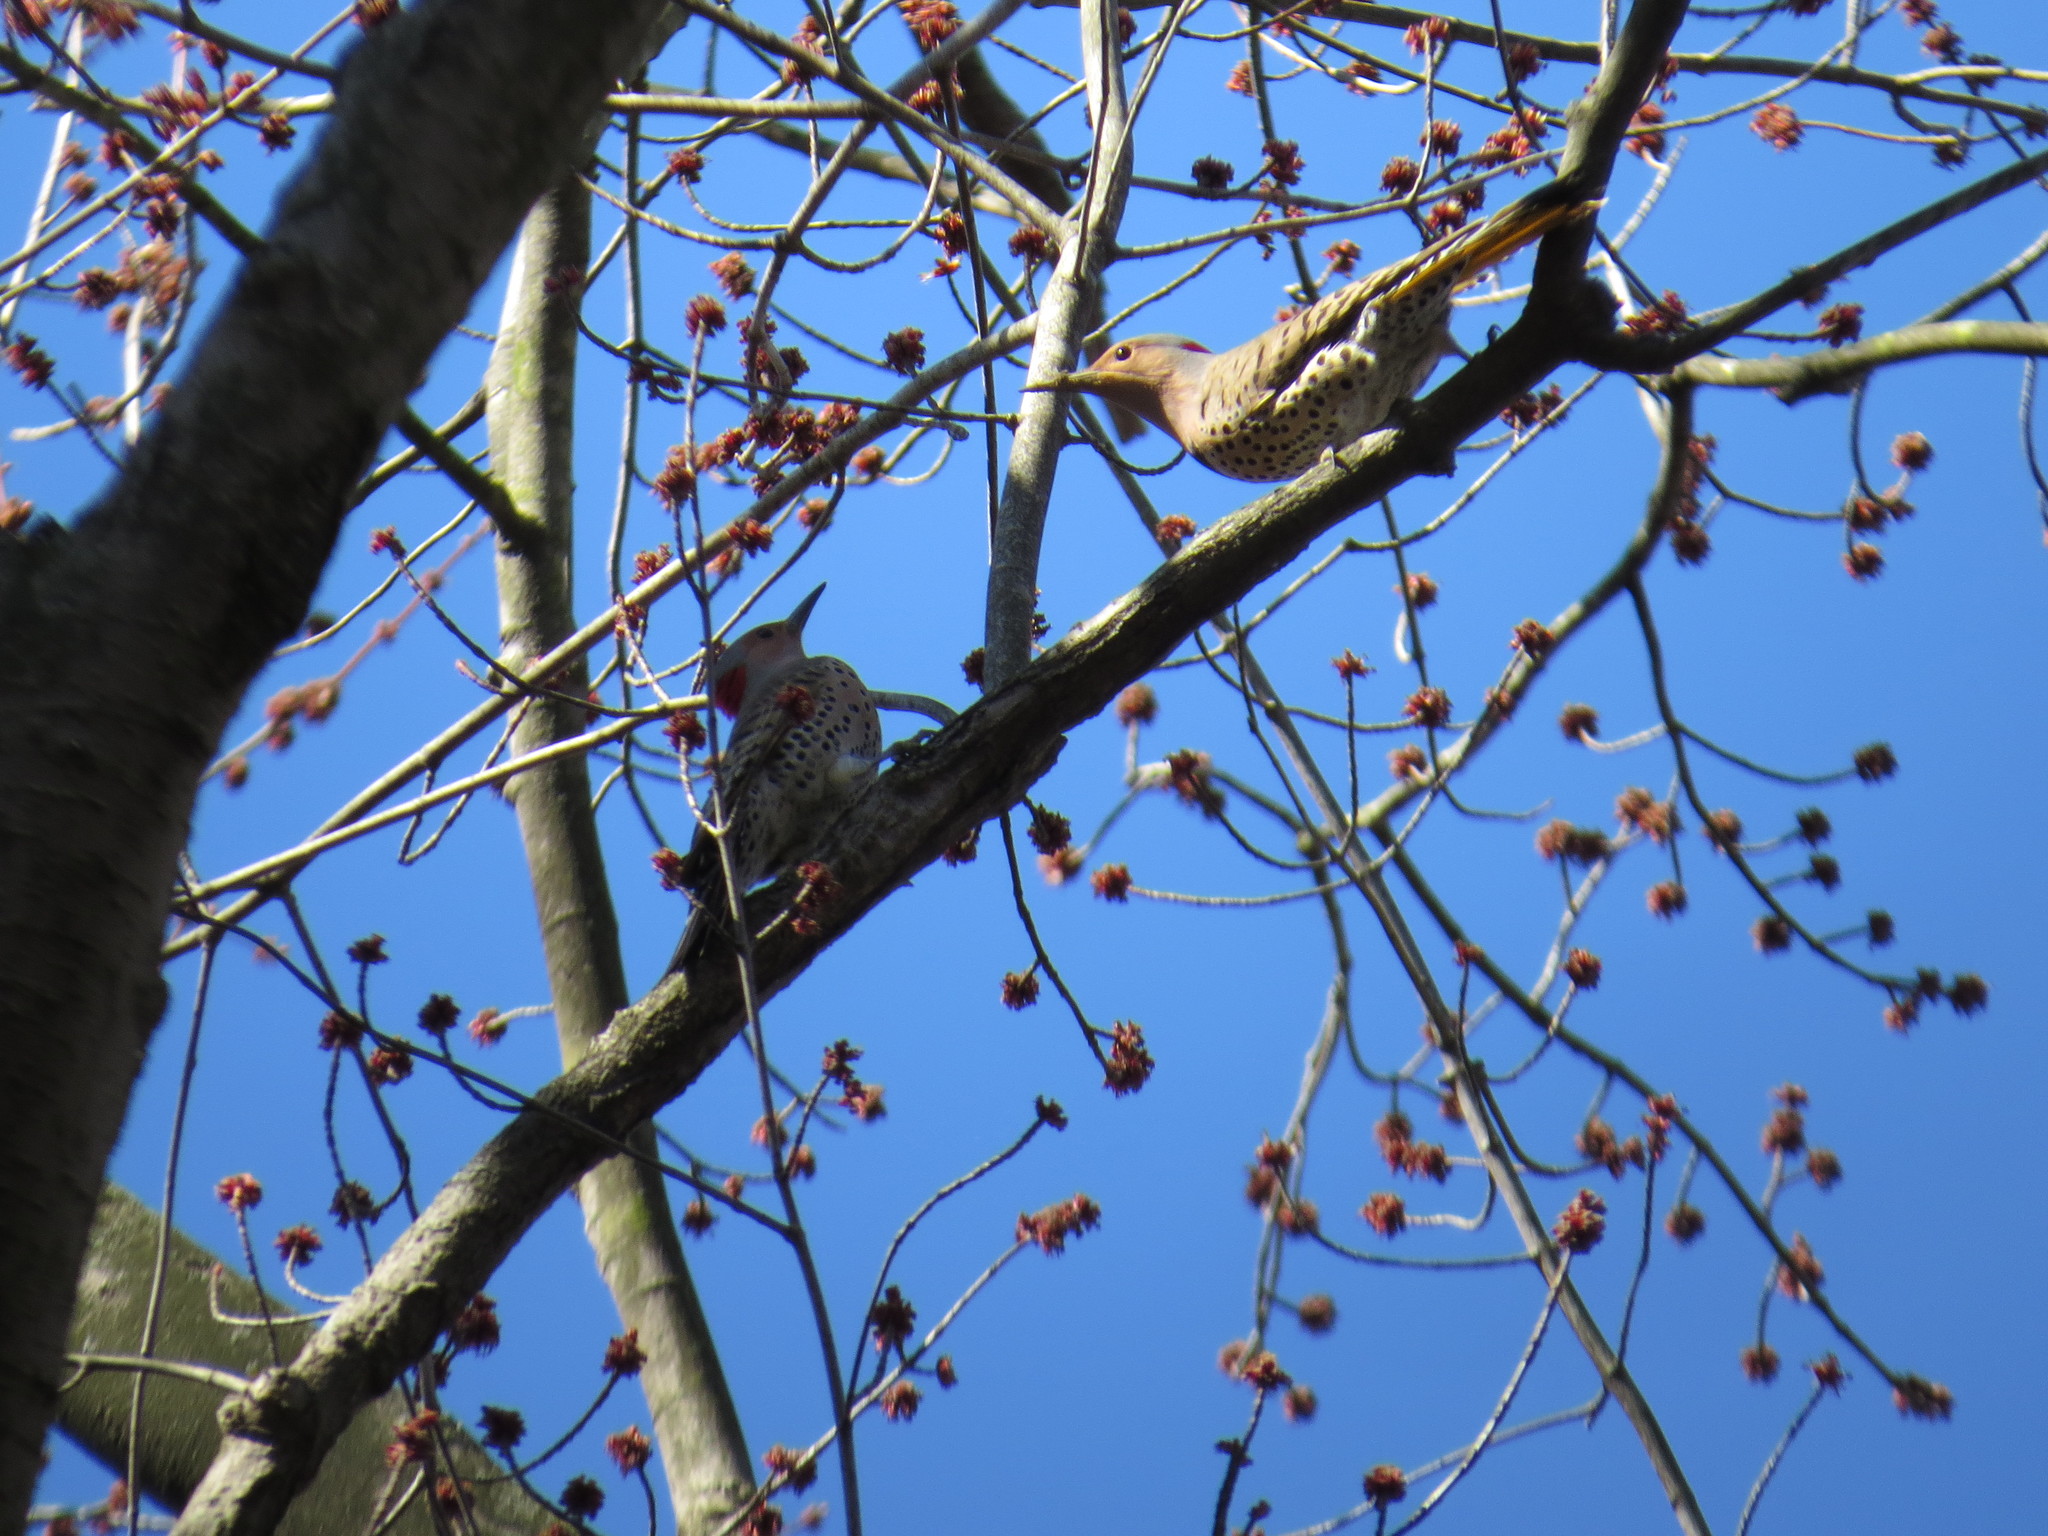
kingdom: Animalia
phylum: Chordata
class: Aves
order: Piciformes
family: Picidae
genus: Colaptes
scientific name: Colaptes auratus
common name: Northern flicker
